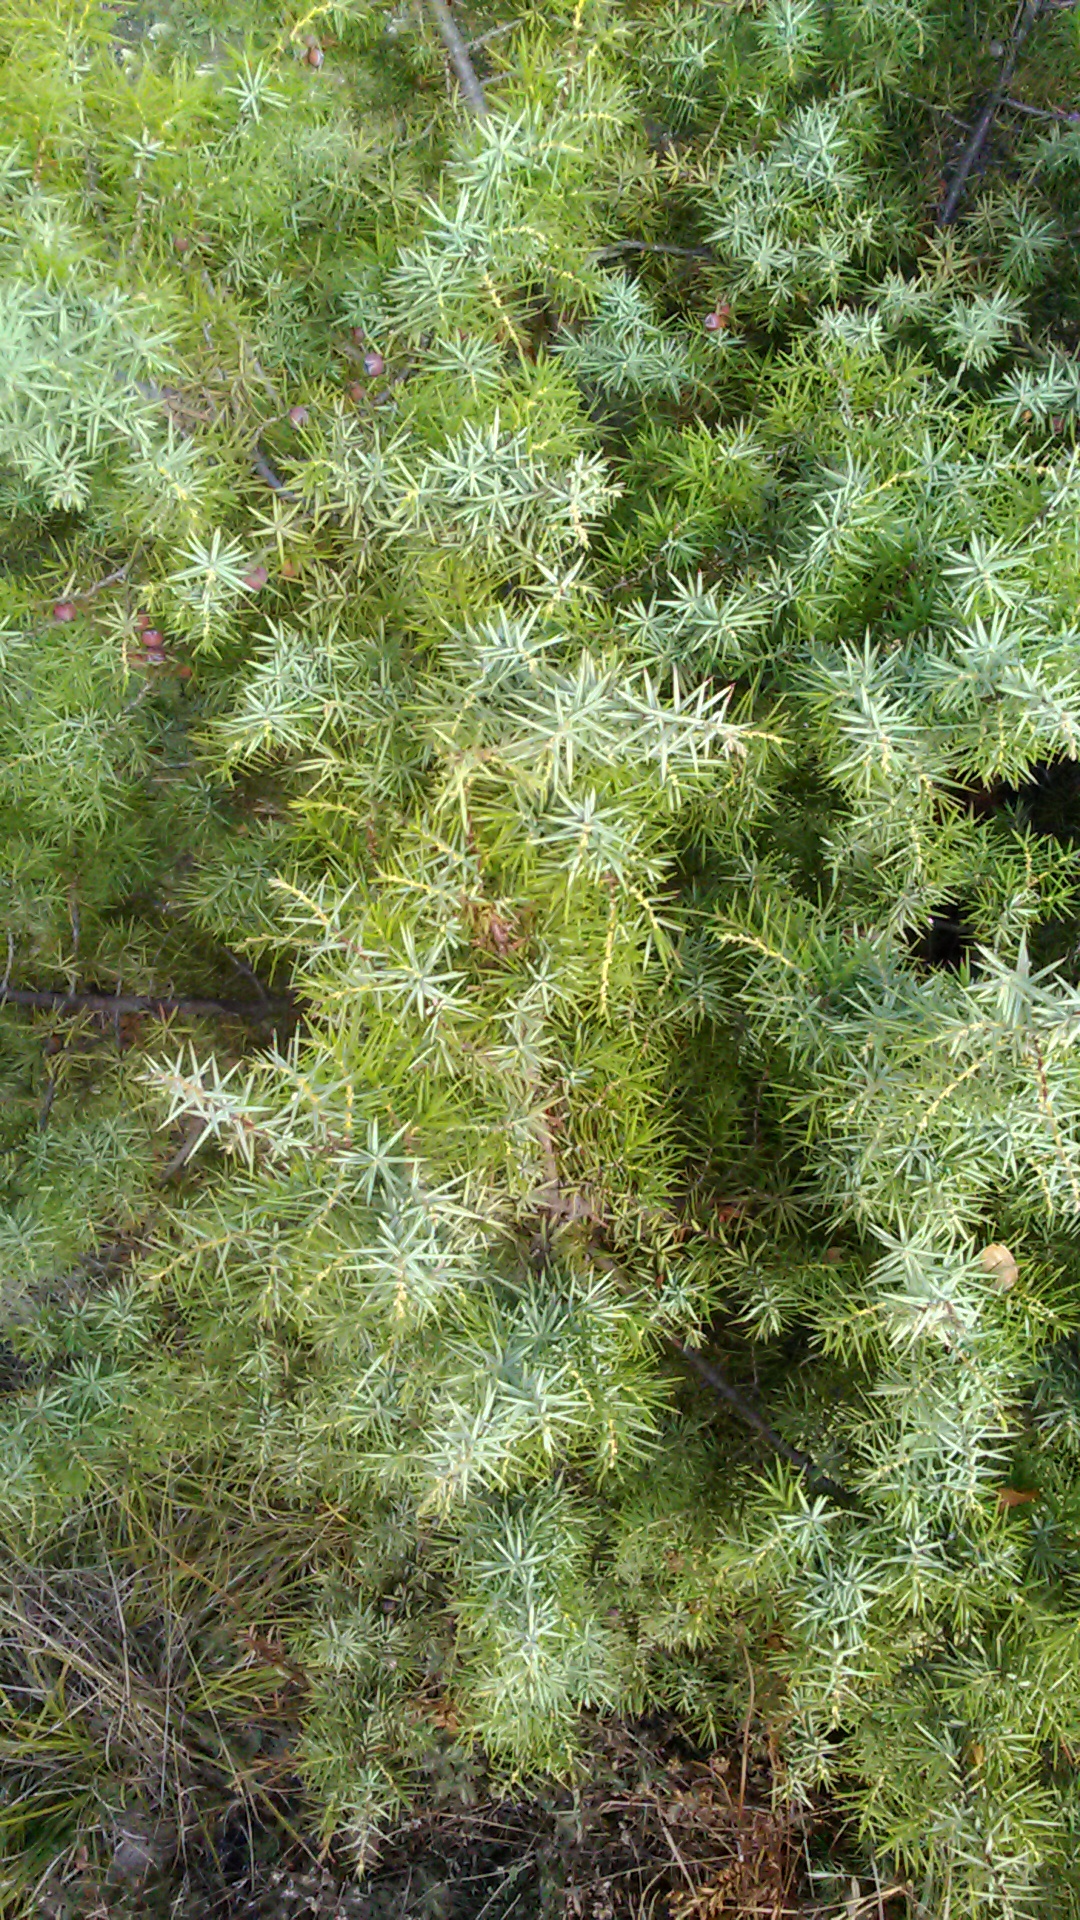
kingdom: Plantae
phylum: Tracheophyta
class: Pinopsida
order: Pinales
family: Cupressaceae
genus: Juniperus
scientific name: Juniperus oxycedrus
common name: Prickly juniper
